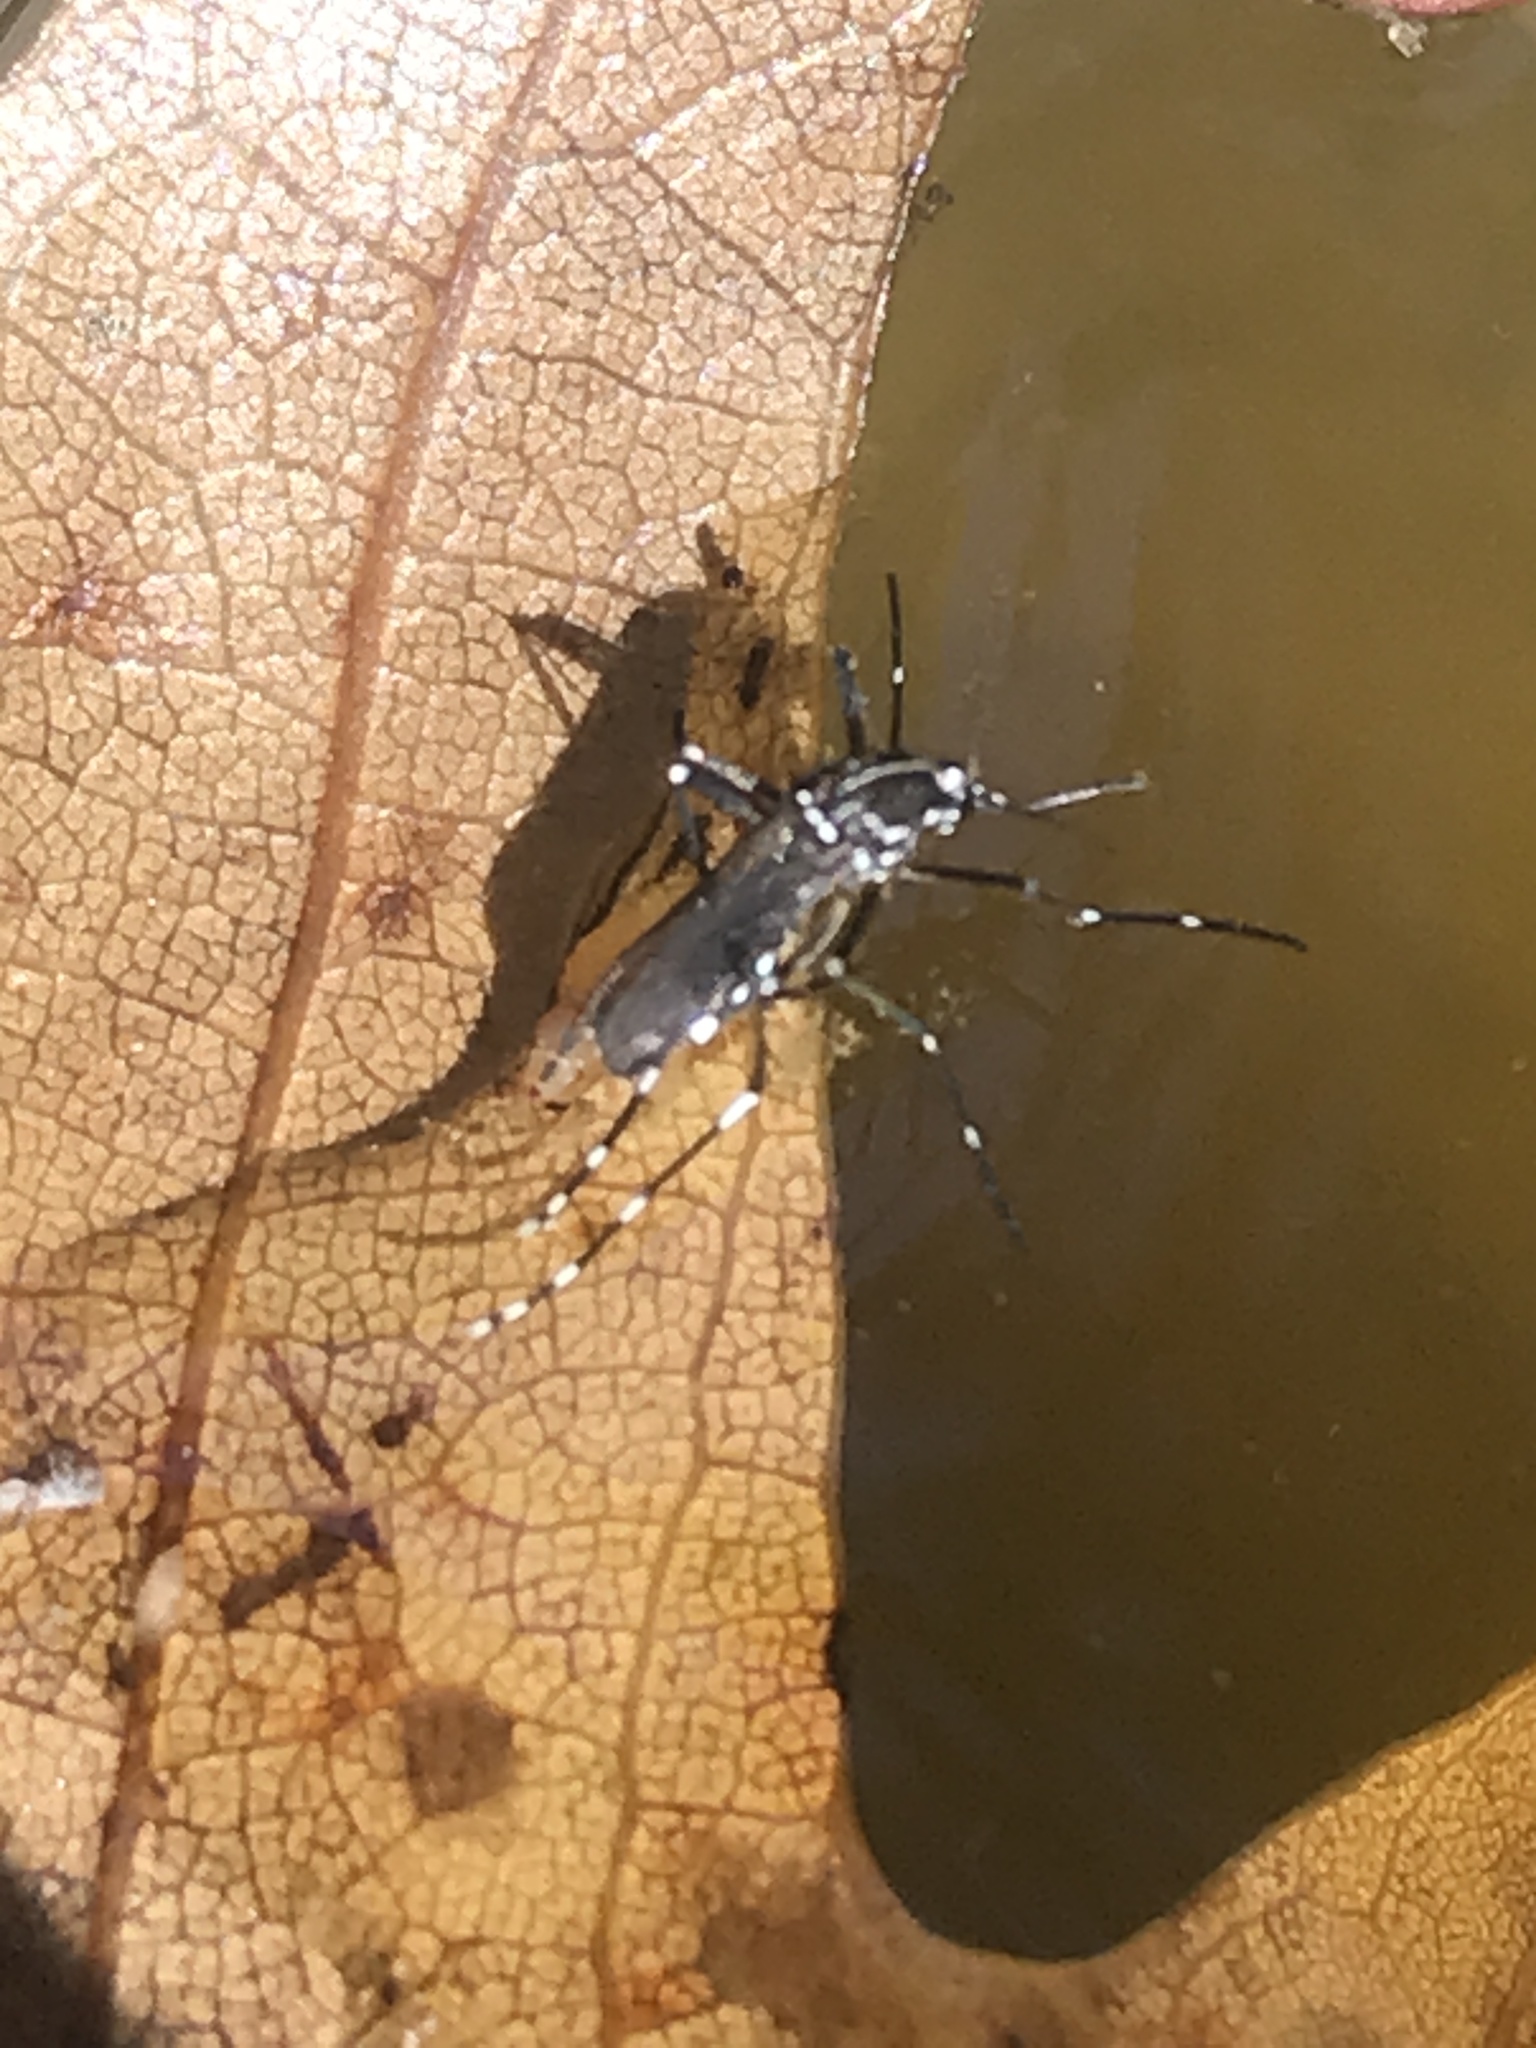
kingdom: Animalia
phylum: Arthropoda
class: Insecta
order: Diptera
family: Culicidae
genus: Aedes
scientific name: Aedes albopictus
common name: Tiger mosquito
